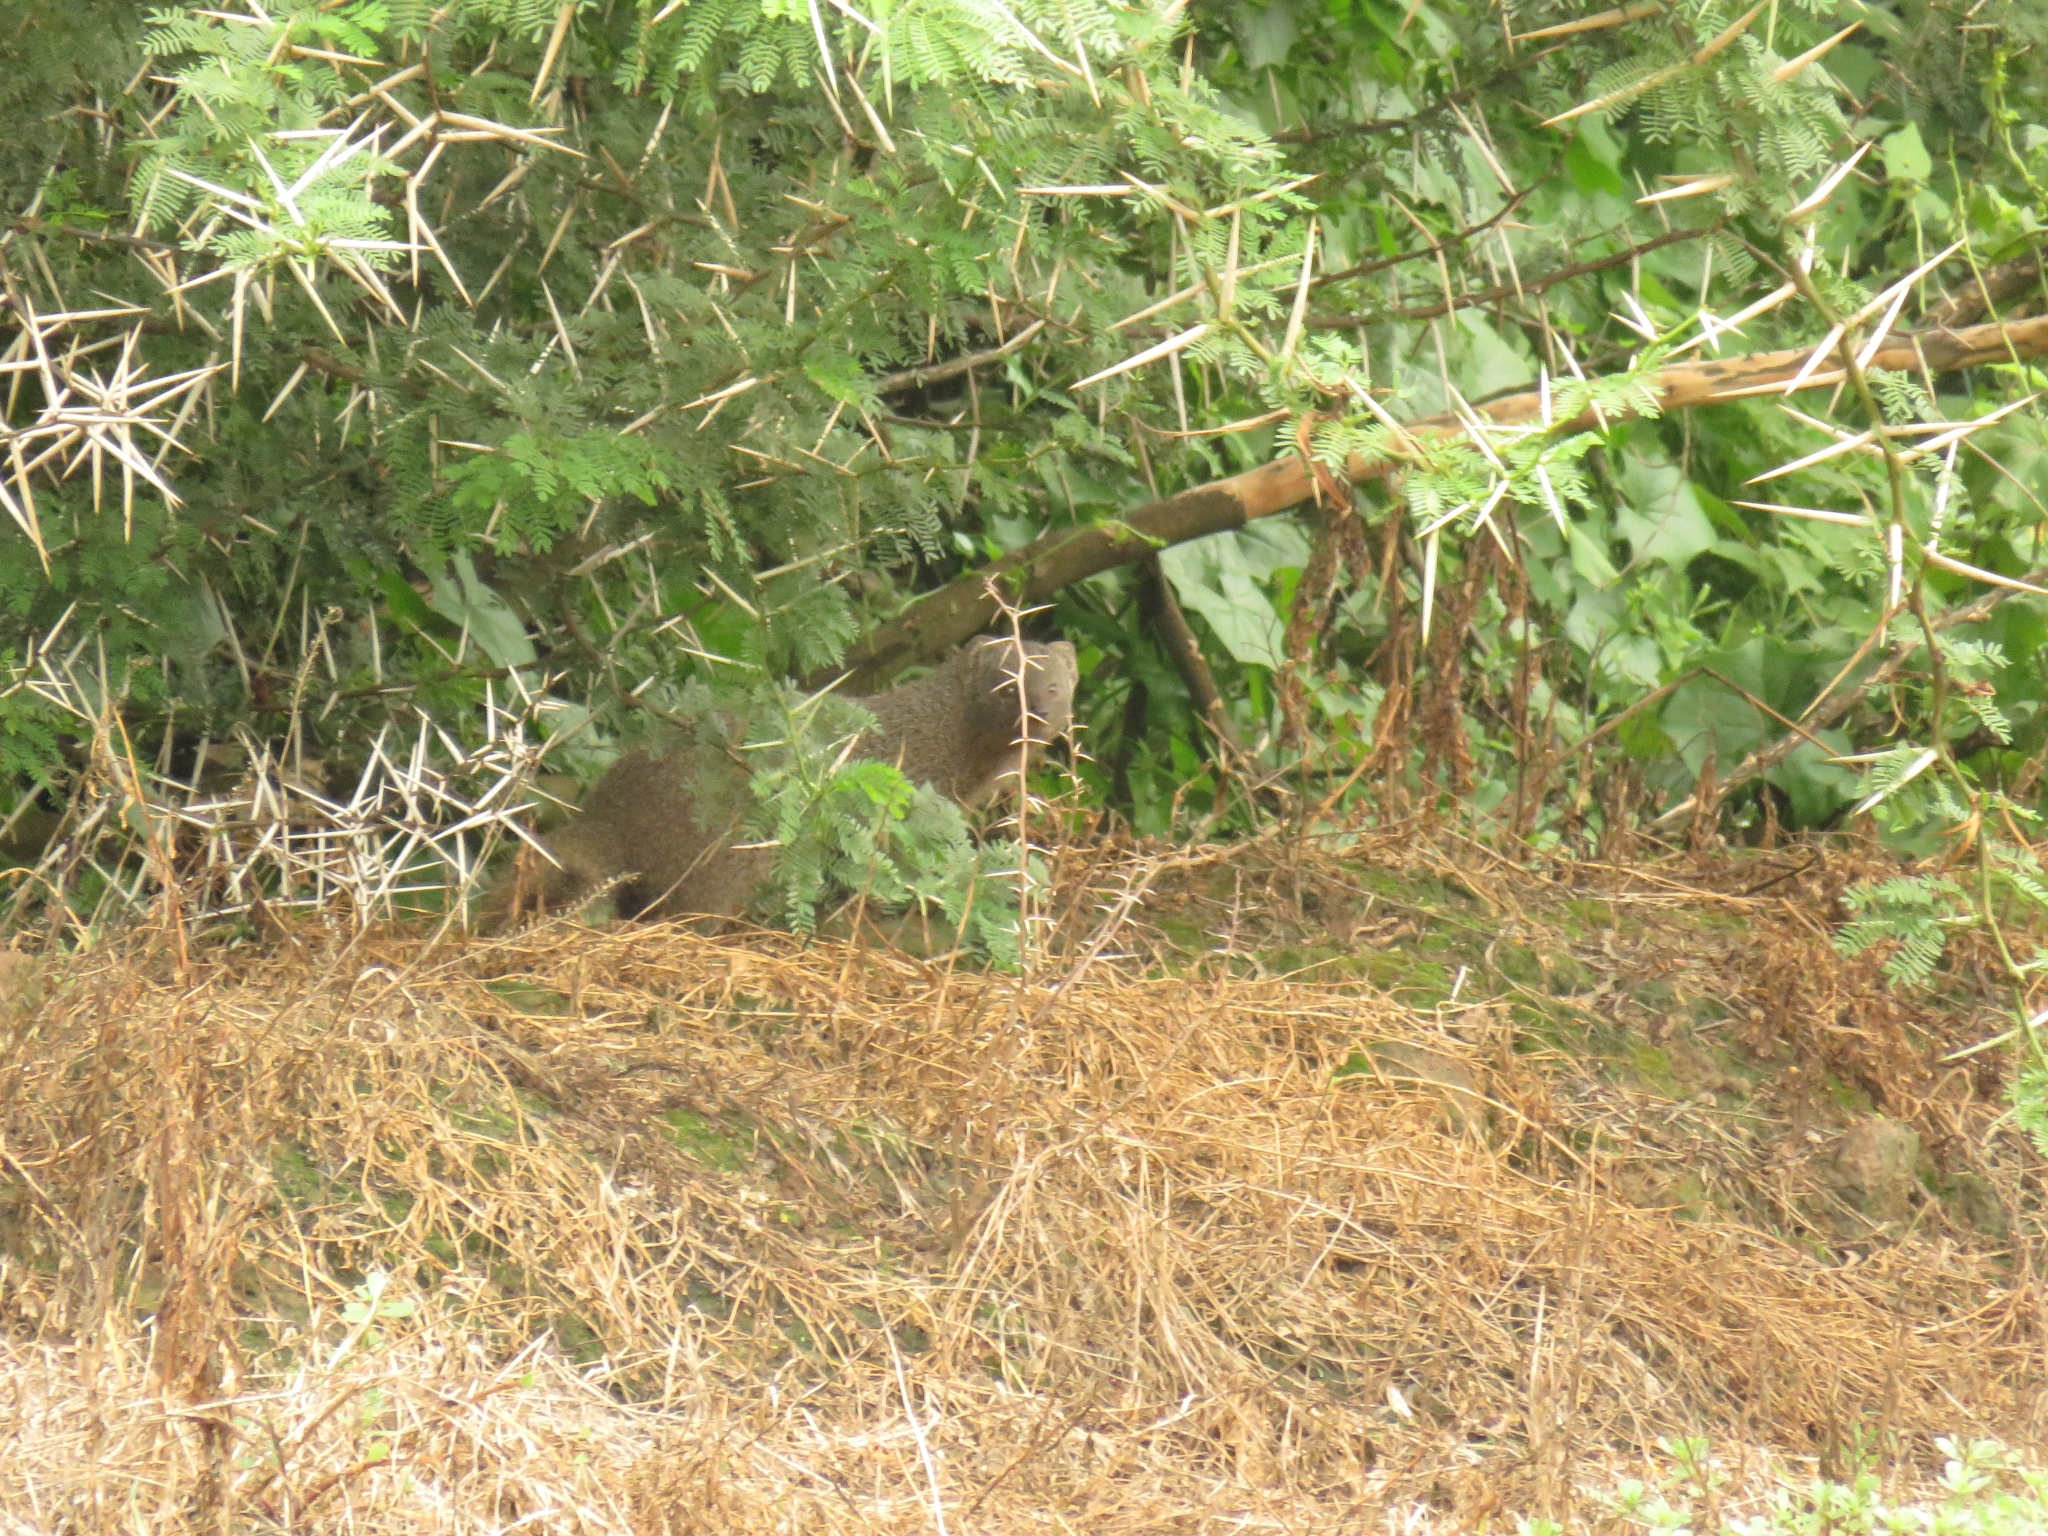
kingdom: Animalia
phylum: Chordata
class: Mammalia
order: Carnivora
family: Herpestidae
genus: Galerella
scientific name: Galerella pulverulenta
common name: Cape gray mongoose
